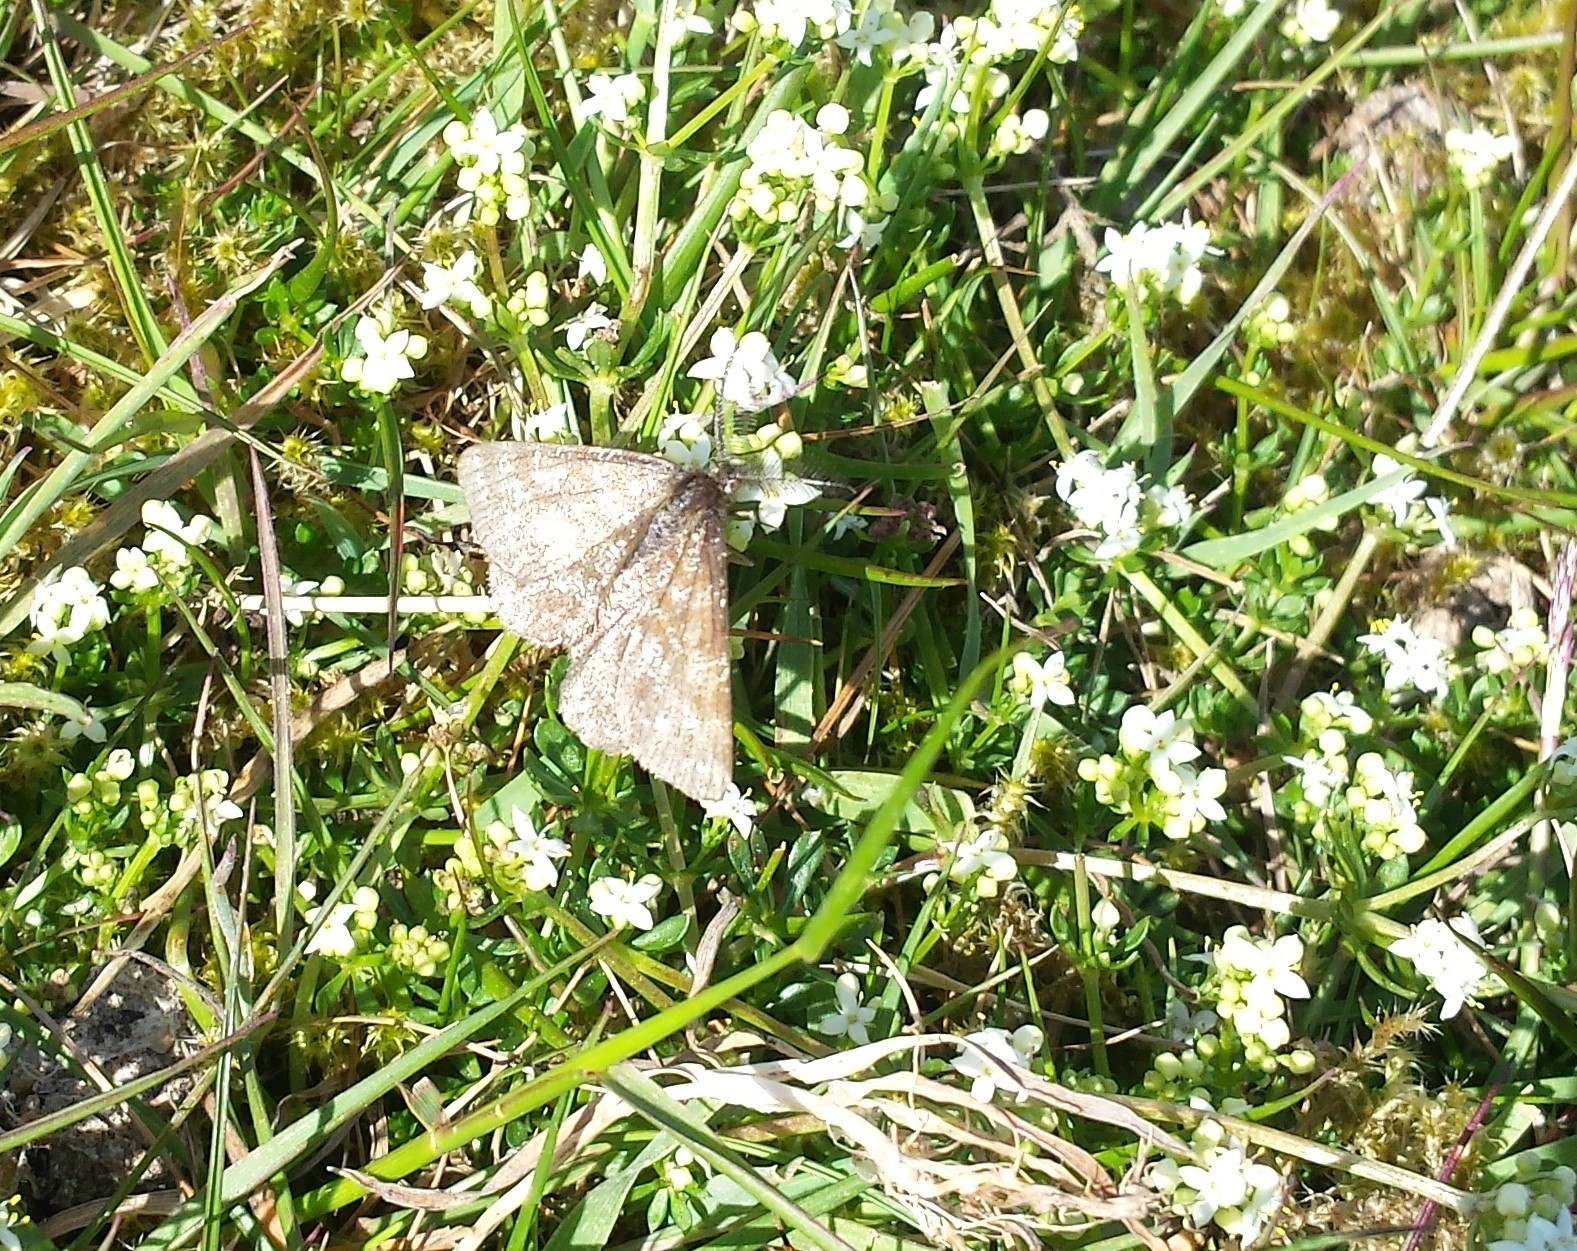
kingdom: Animalia
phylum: Arthropoda
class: Insecta
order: Lepidoptera
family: Geometridae
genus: Ematurga
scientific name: Ematurga atomaria
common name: Common heath
